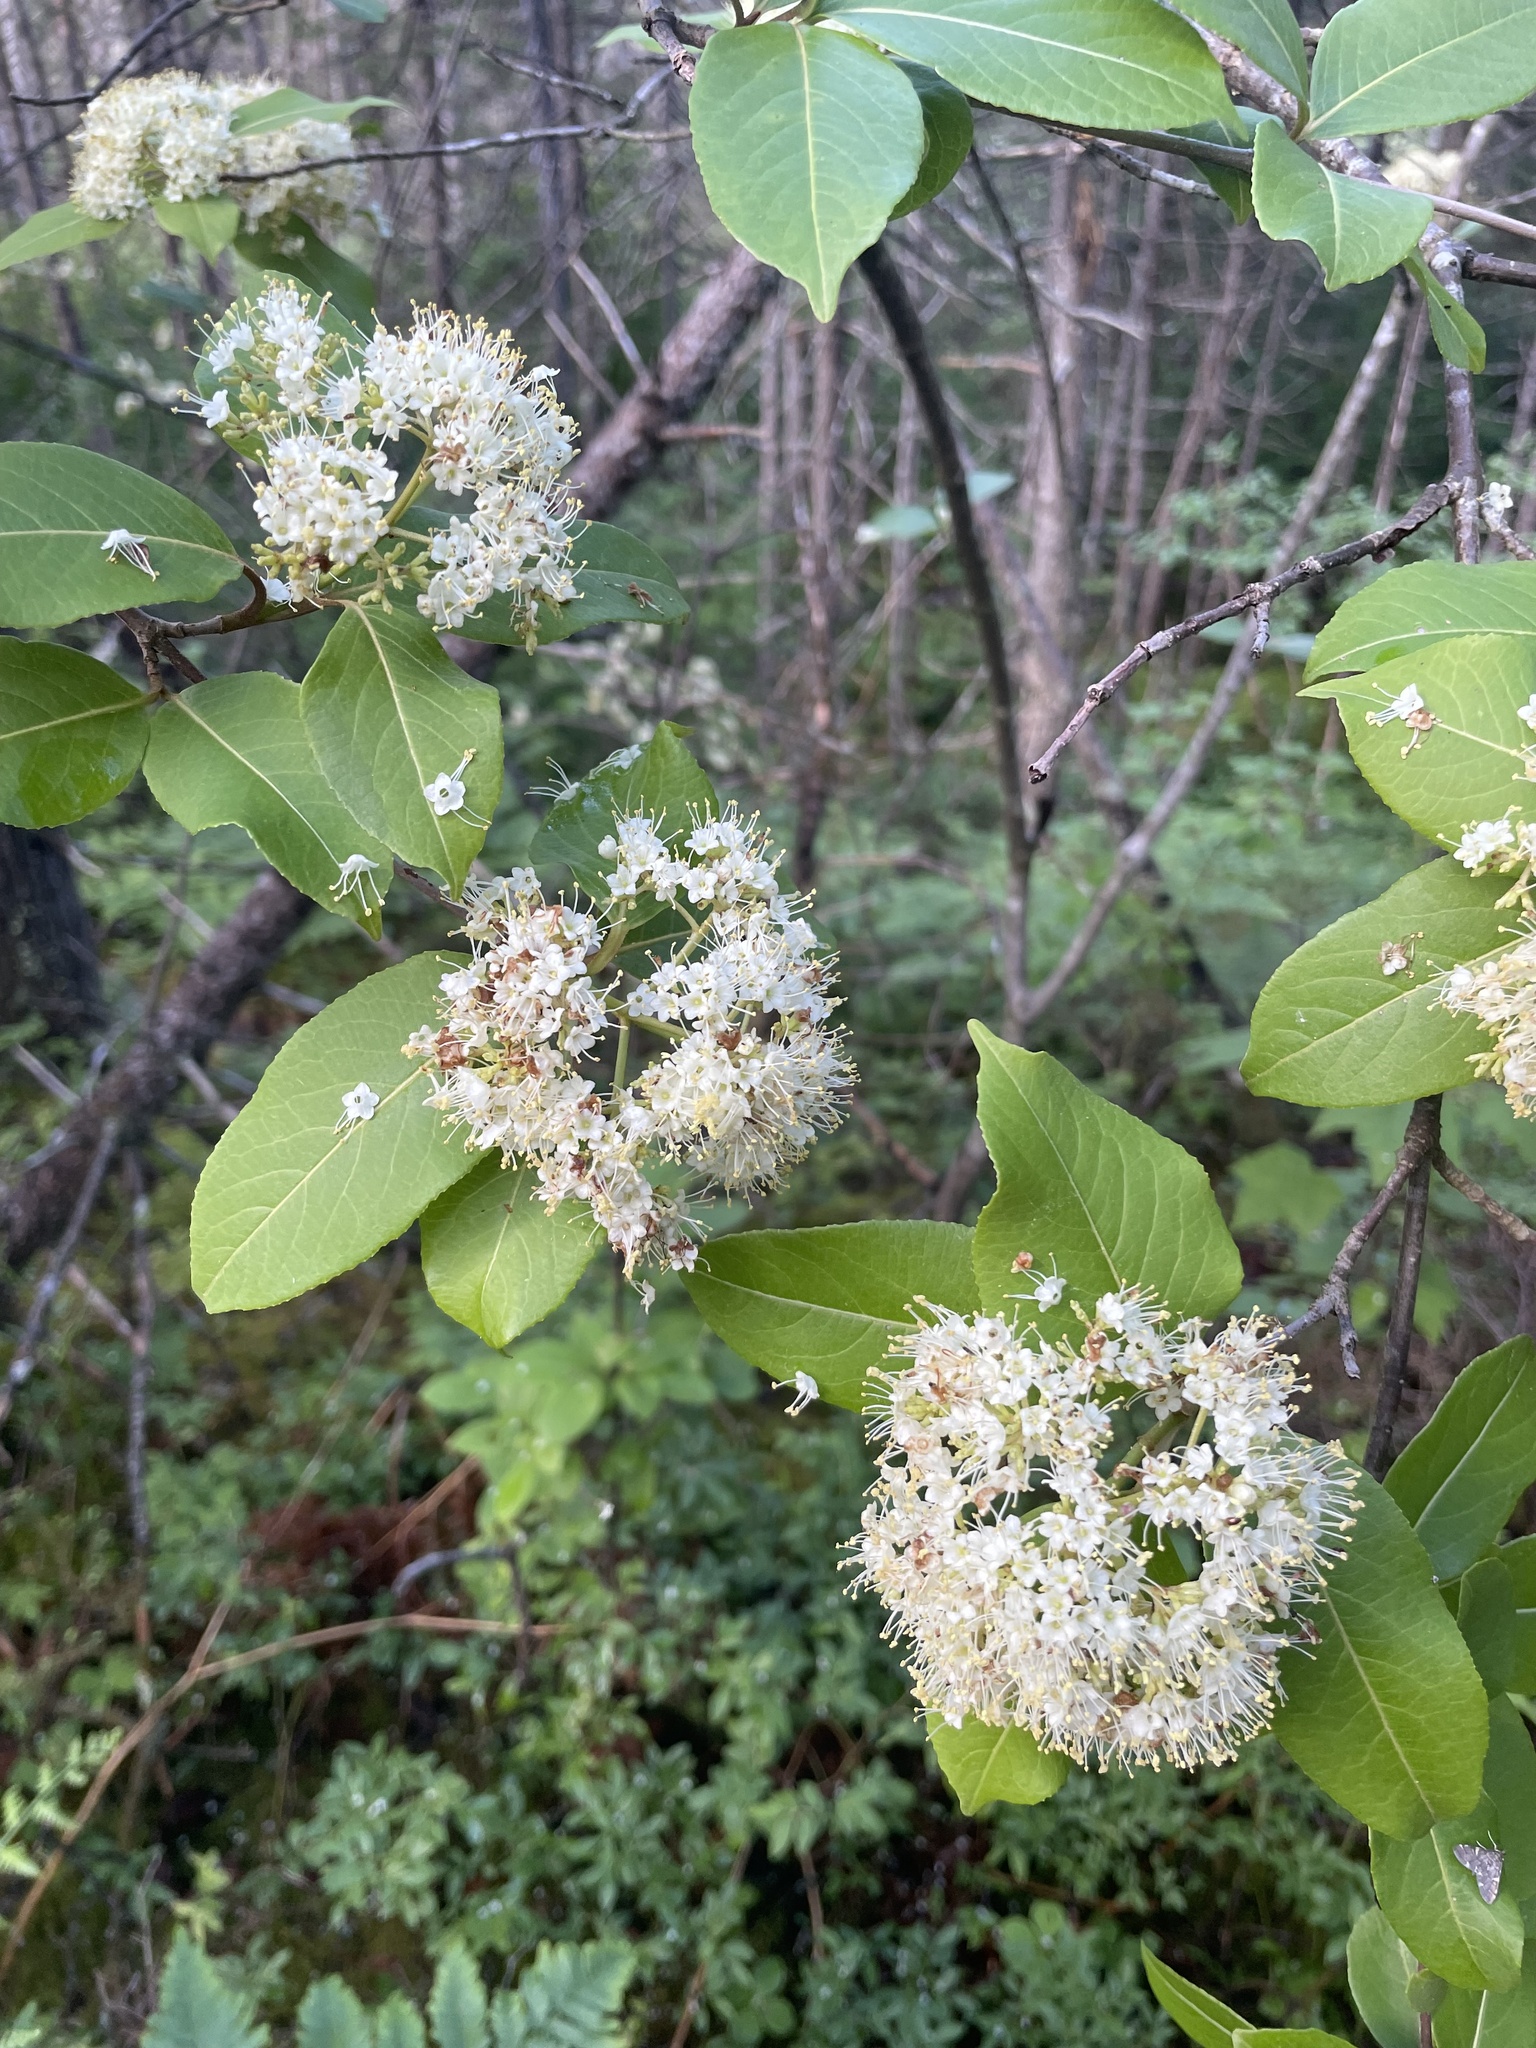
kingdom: Plantae
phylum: Tracheophyta
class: Magnoliopsida
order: Dipsacales
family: Viburnaceae
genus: Viburnum
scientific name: Viburnum cassinoides
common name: Swamp haw
